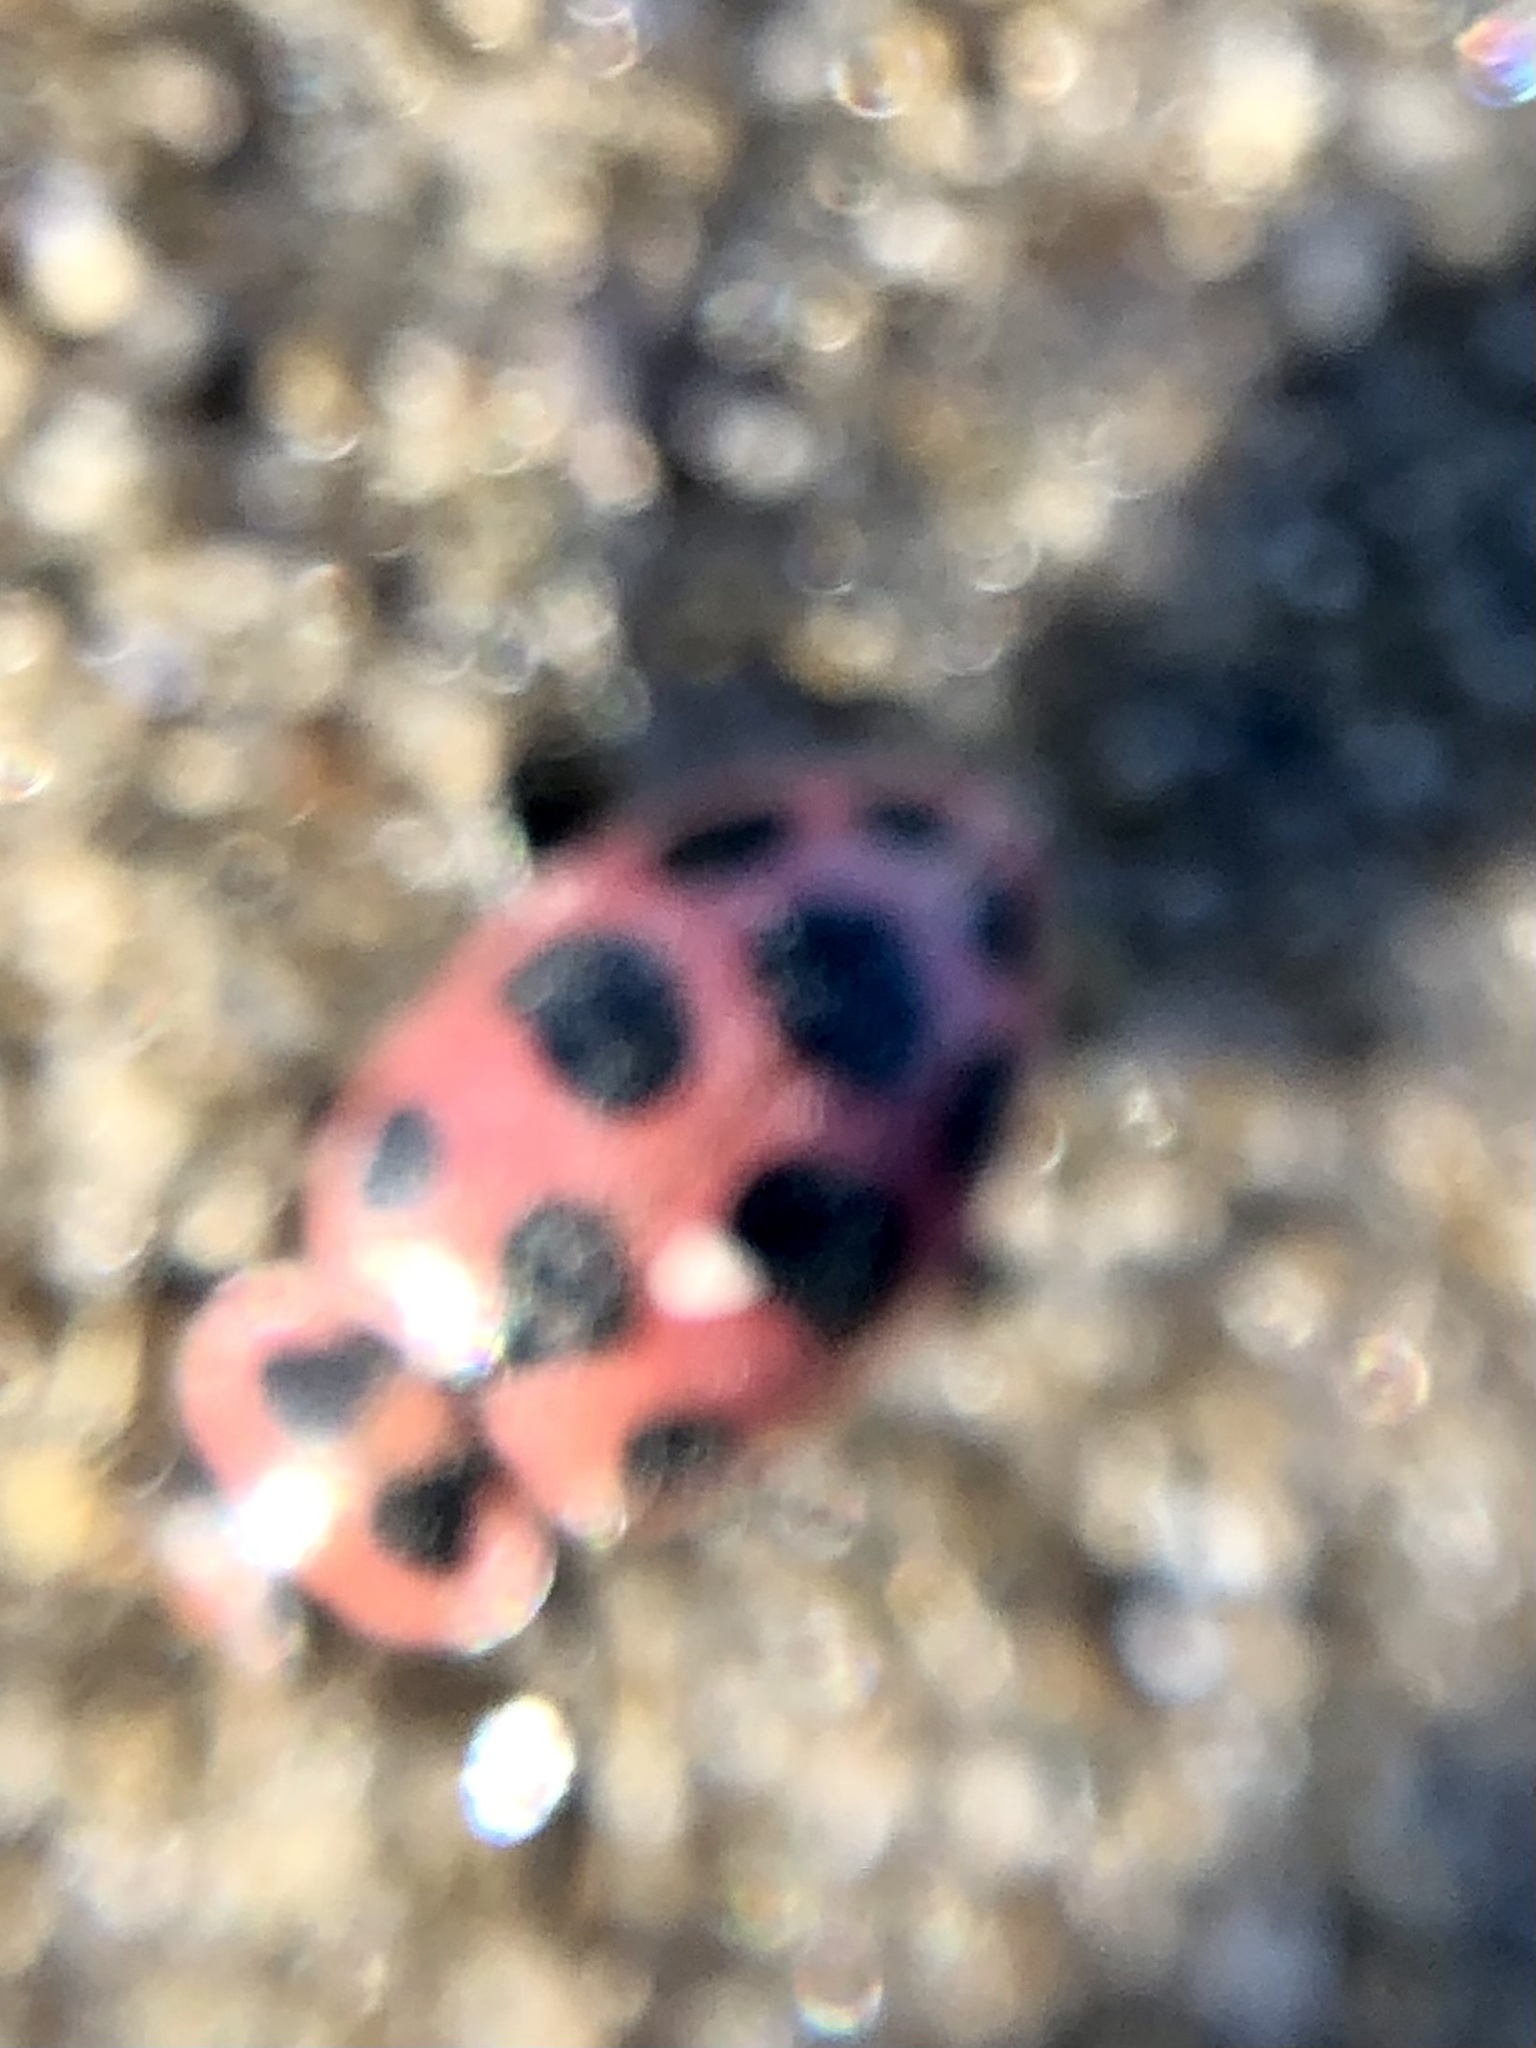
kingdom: Animalia
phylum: Arthropoda
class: Insecta
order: Coleoptera
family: Coccinellidae
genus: Coleomegilla
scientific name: Coleomegilla maculata
